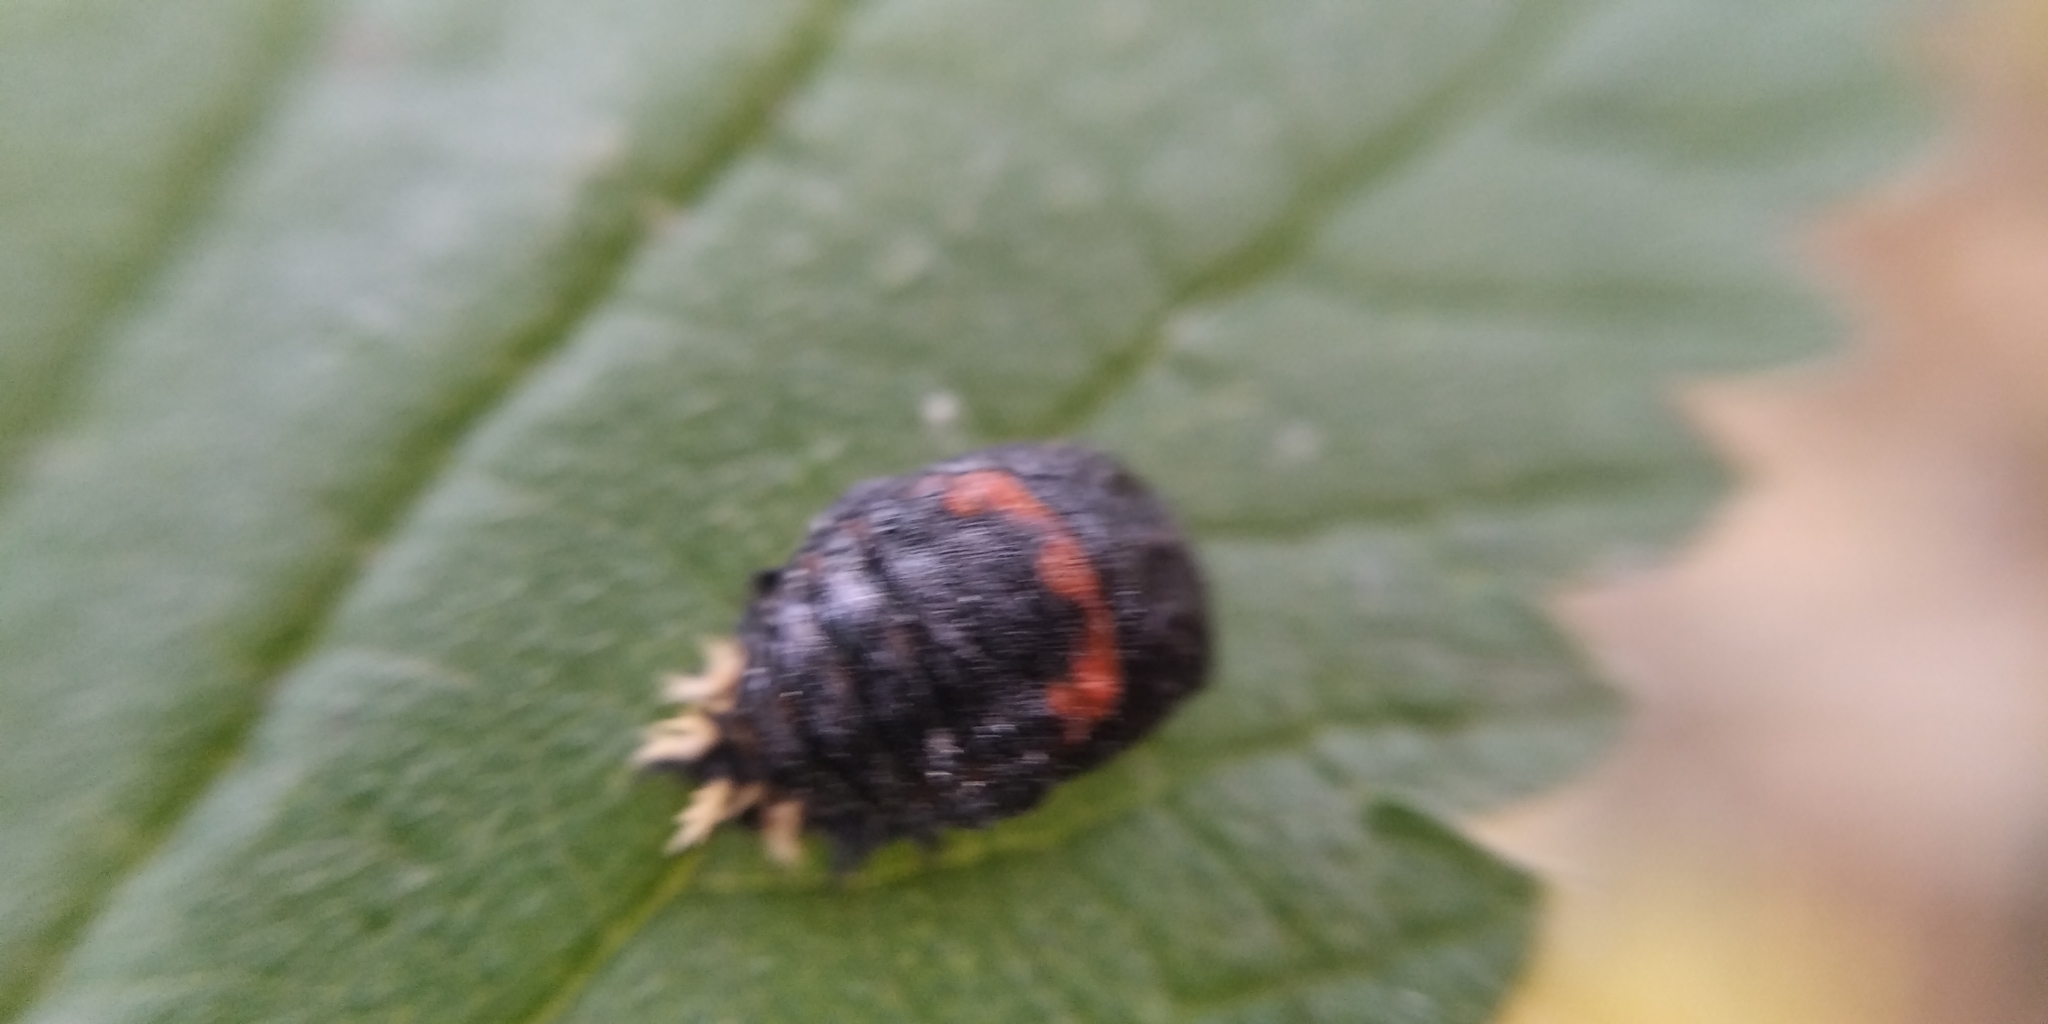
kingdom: Animalia
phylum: Arthropoda
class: Insecta
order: Coleoptera
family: Coccinellidae
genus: Harmonia
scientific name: Harmonia axyridis
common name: Harlequin ladybird
